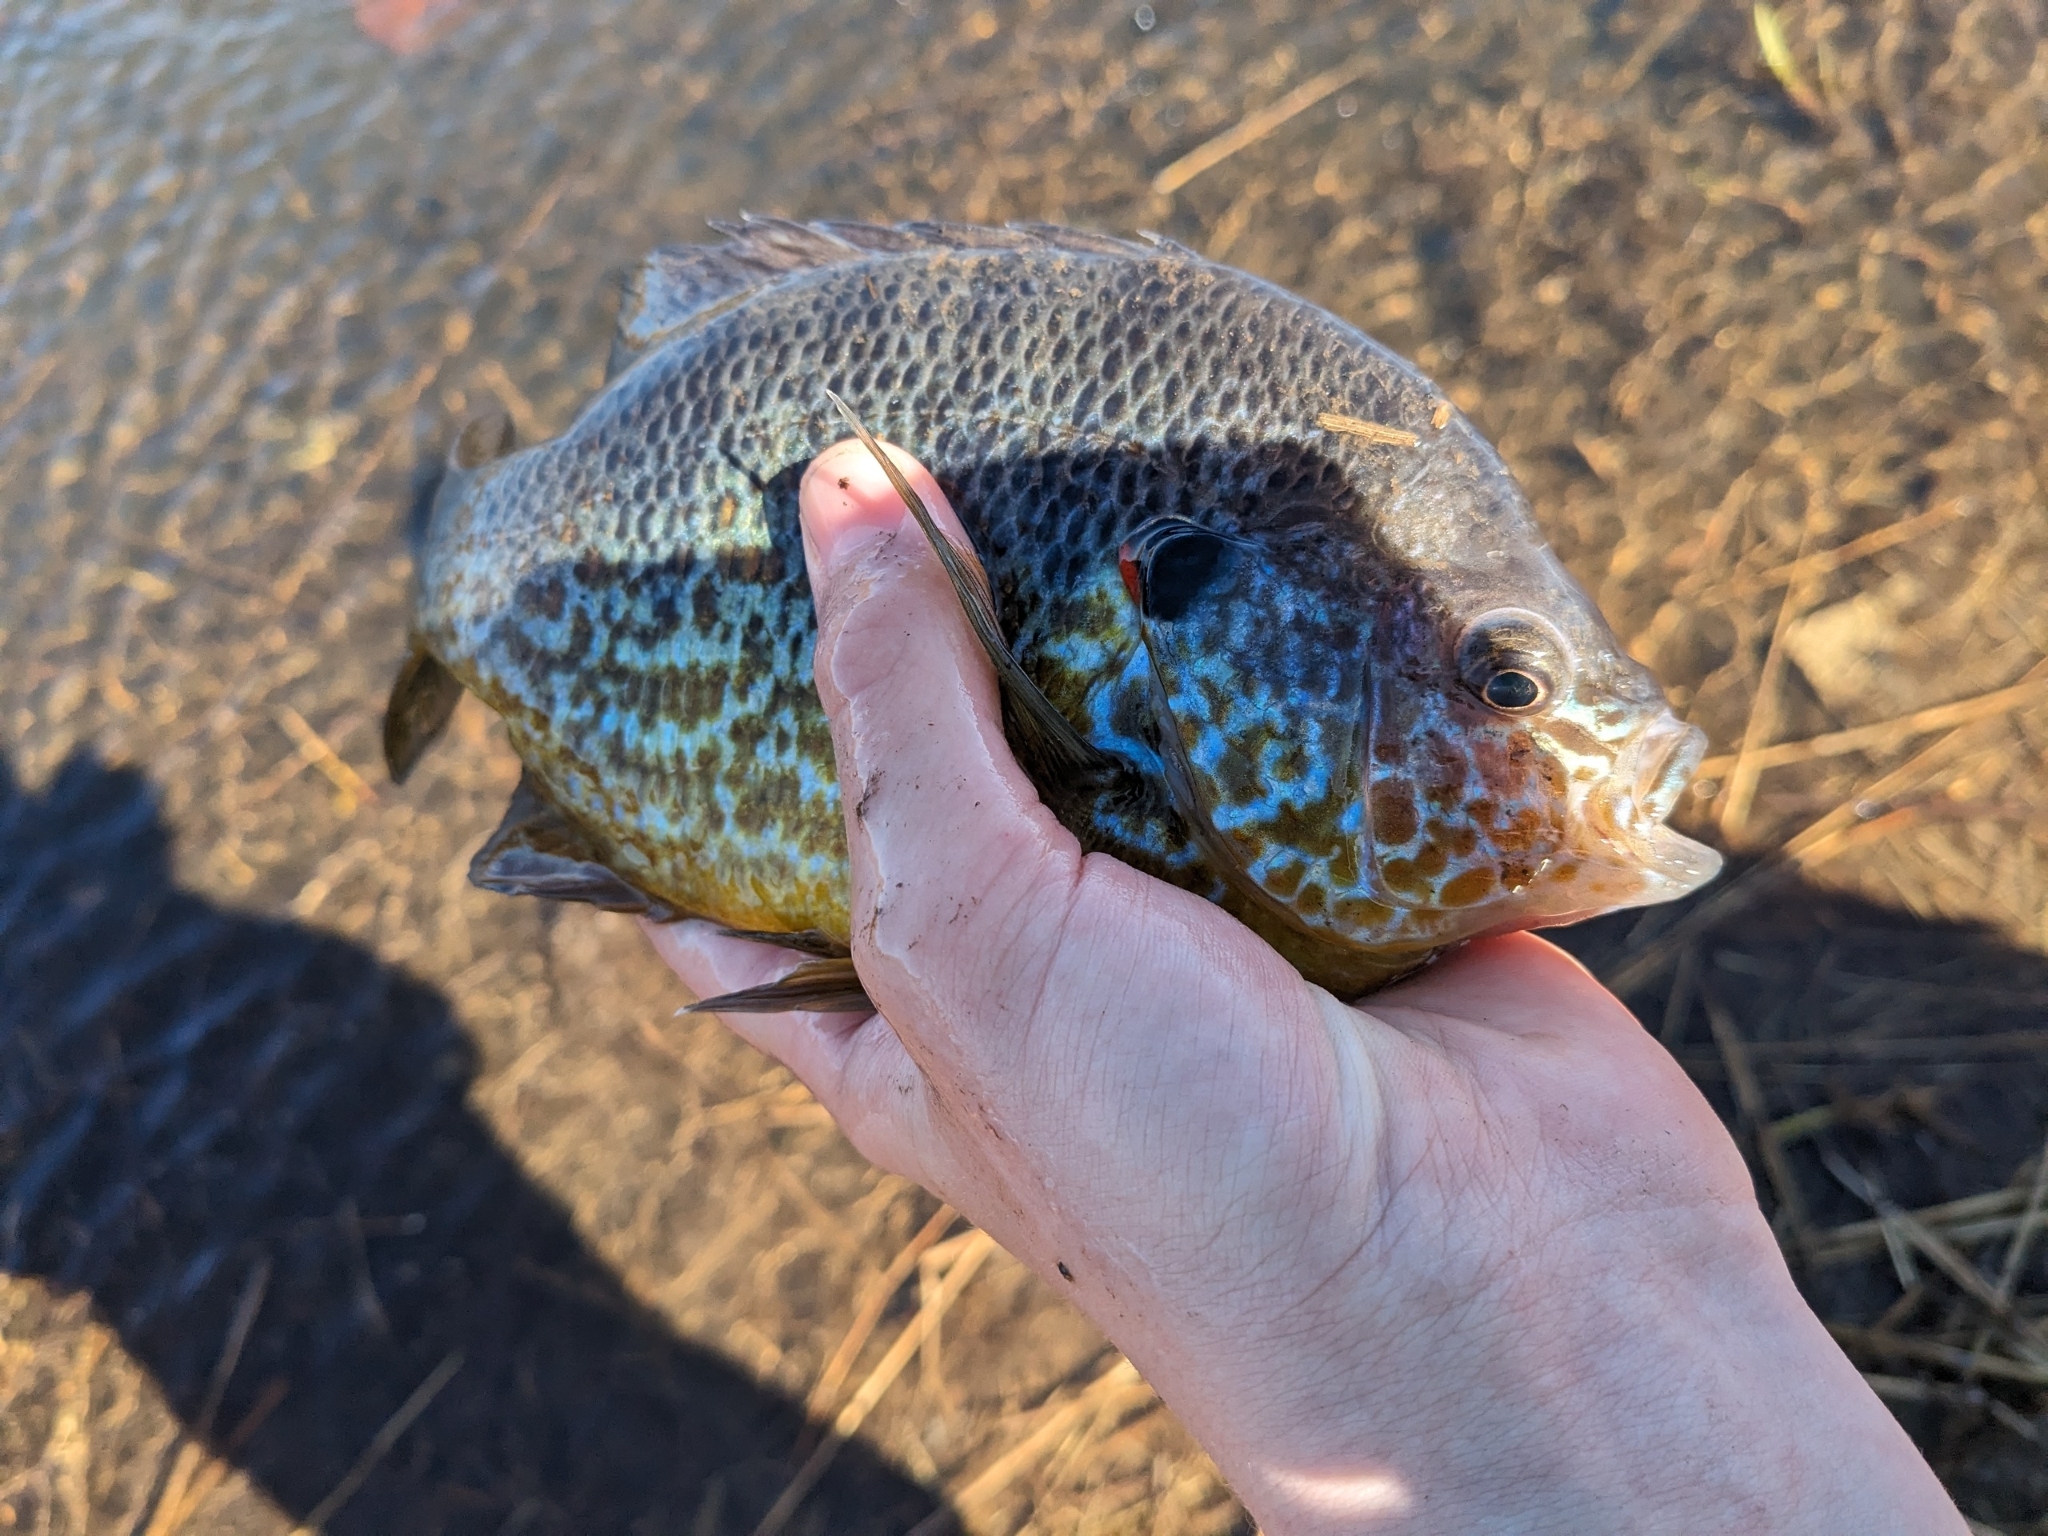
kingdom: Animalia
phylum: Chordata
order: Perciformes
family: Centrarchidae
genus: Lepomis
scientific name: Lepomis gibbosus
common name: Pumpkinseed
